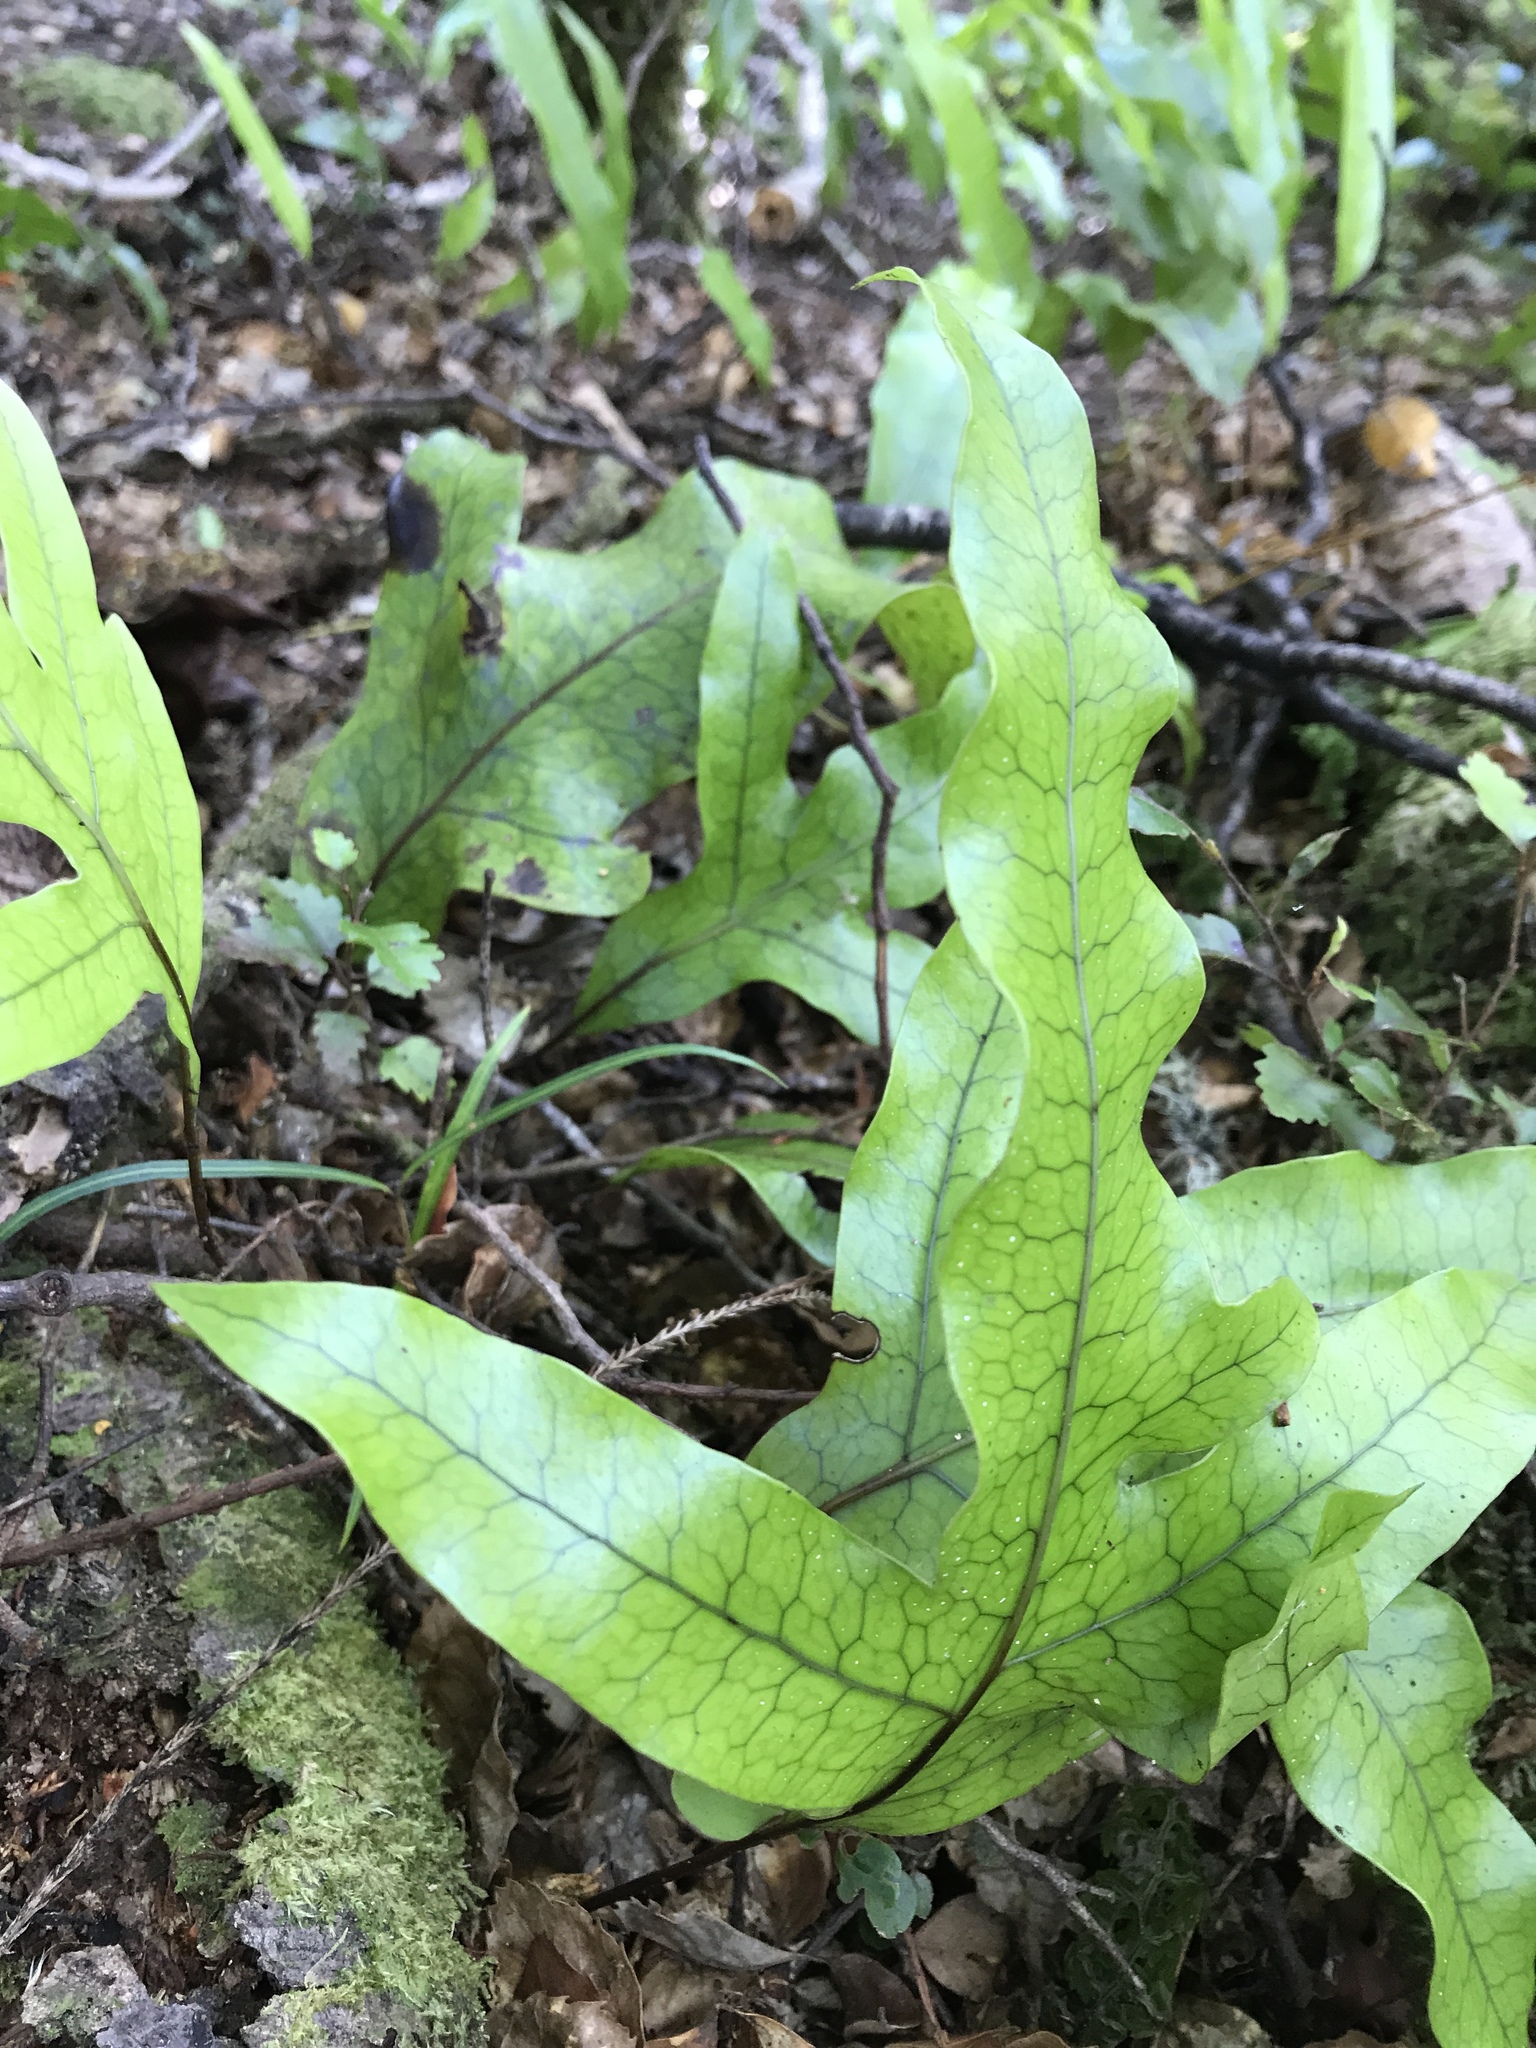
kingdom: Plantae
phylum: Tracheophyta
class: Polypodiopsida
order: Polypodiales
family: Polypodiaceae
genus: Lecanopteris
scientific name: Lecanopteris pustulata
